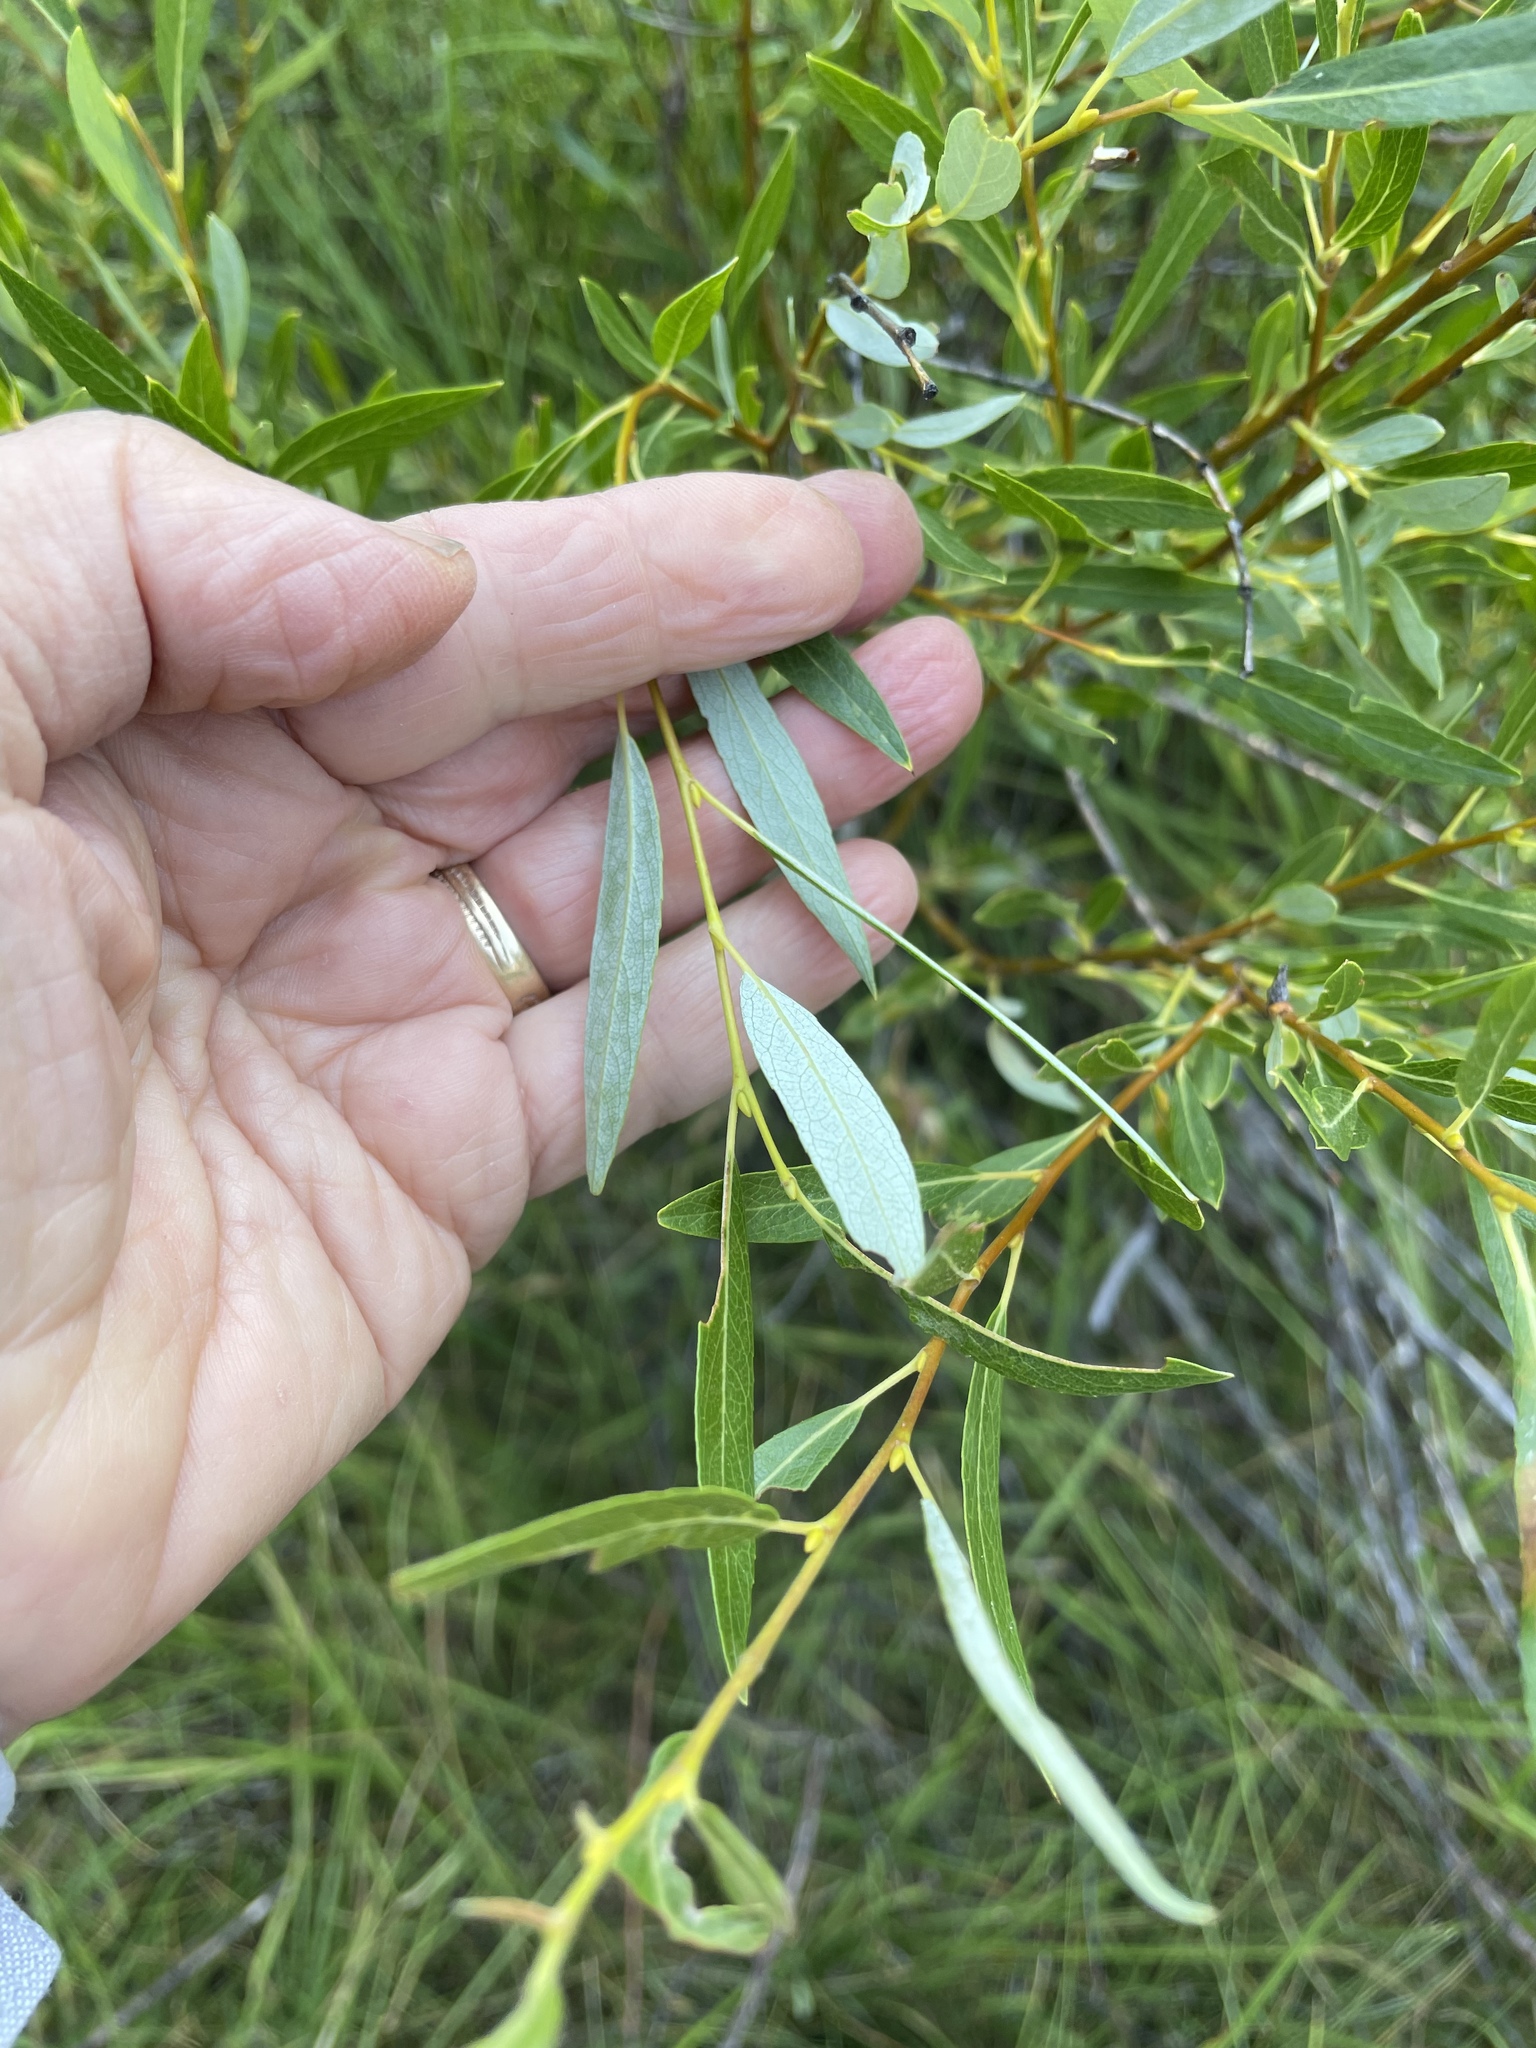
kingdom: Plantae
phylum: Tracheophyta
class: Magnoliopsida
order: Malpighiales
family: Salicaceae
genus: Salix
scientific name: Salix lemmonii
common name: Lemmon's willow
